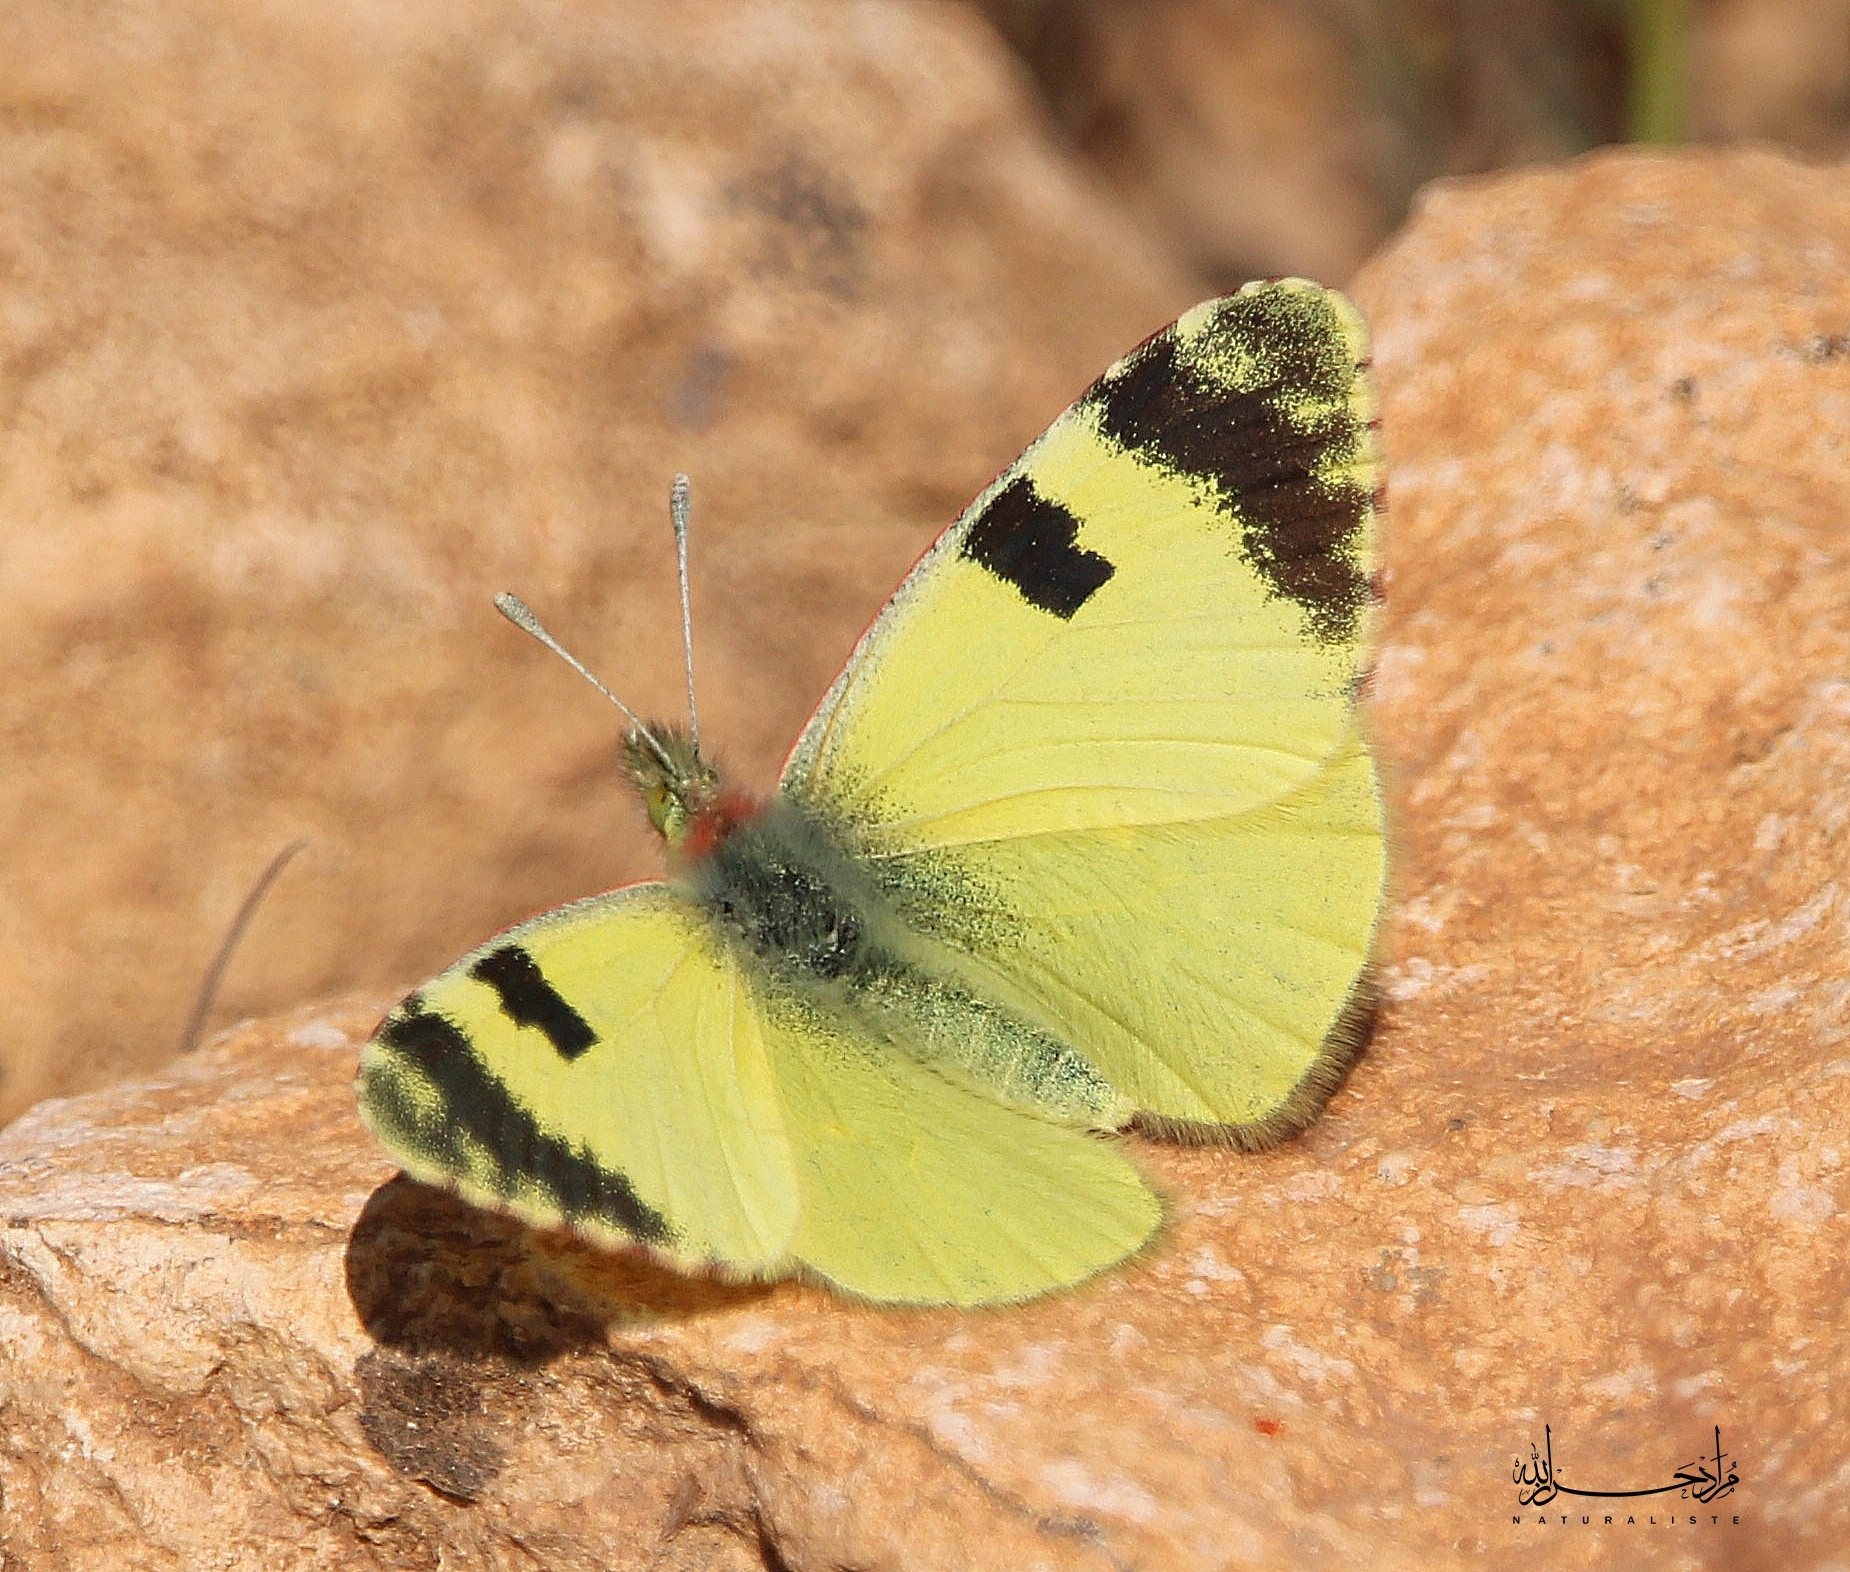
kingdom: Animalia
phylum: Arthropoda
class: Insecta
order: Lepidoptera
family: Pieridae
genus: Elphinstonia
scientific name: Elphinstonia charlonia
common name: Greenish black-tip
